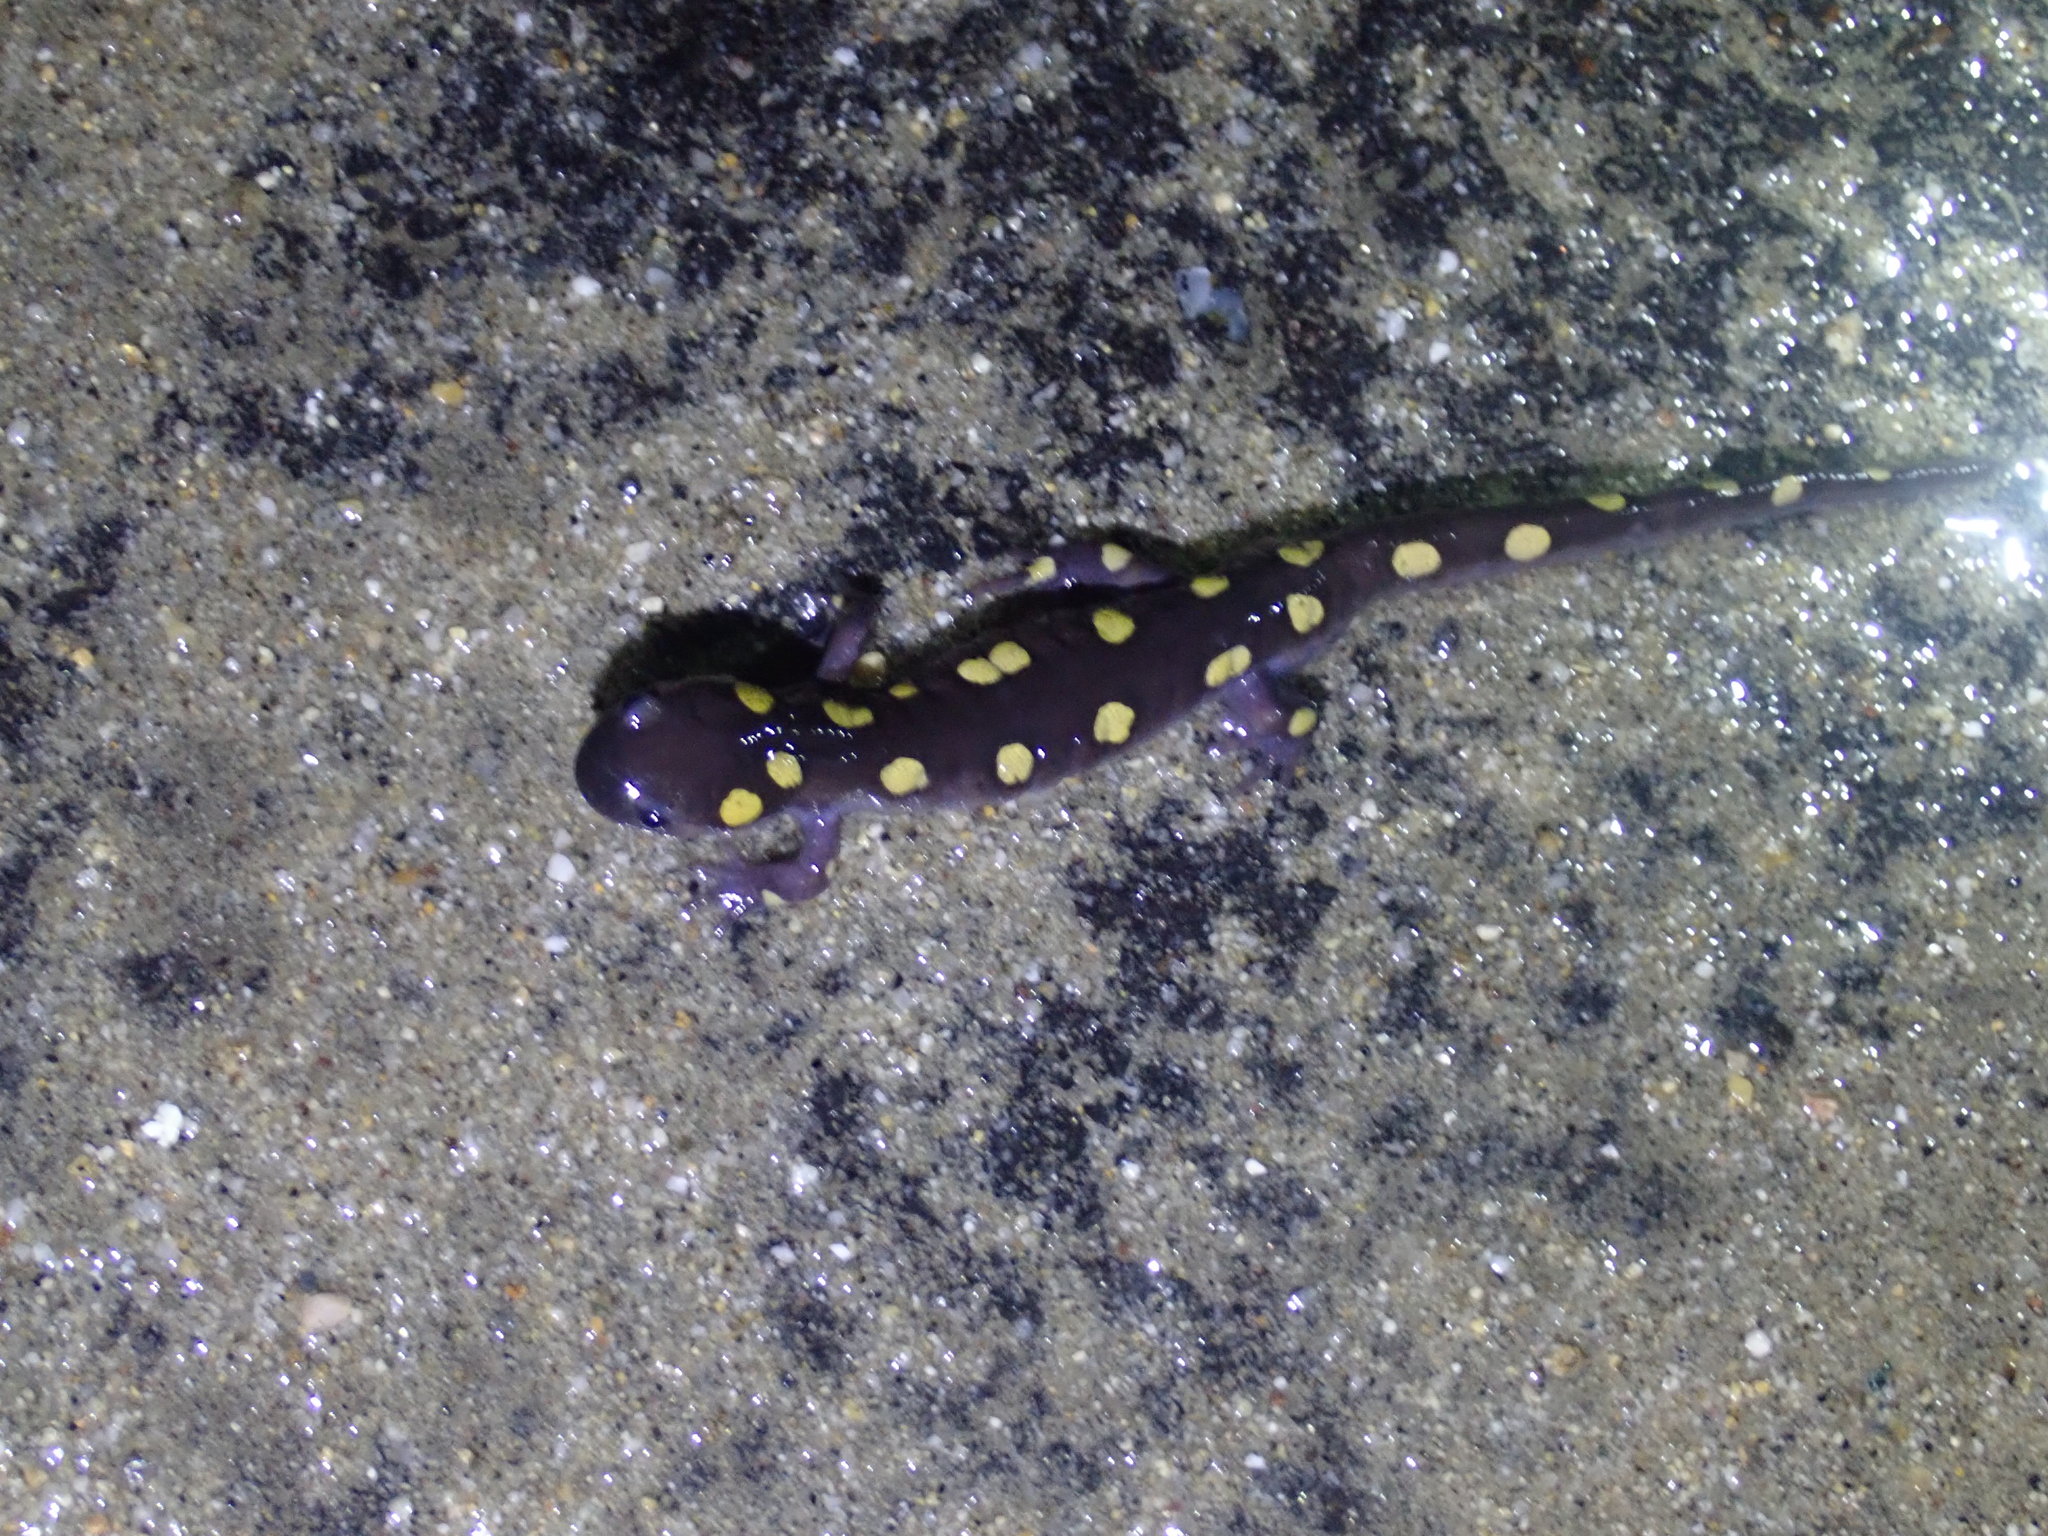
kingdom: Animalia
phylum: Chordata
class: Amphibia
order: Caudata
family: Ambystomatidae
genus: Ambystoma
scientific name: Ambystoma maculatum
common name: Spotted salamander
